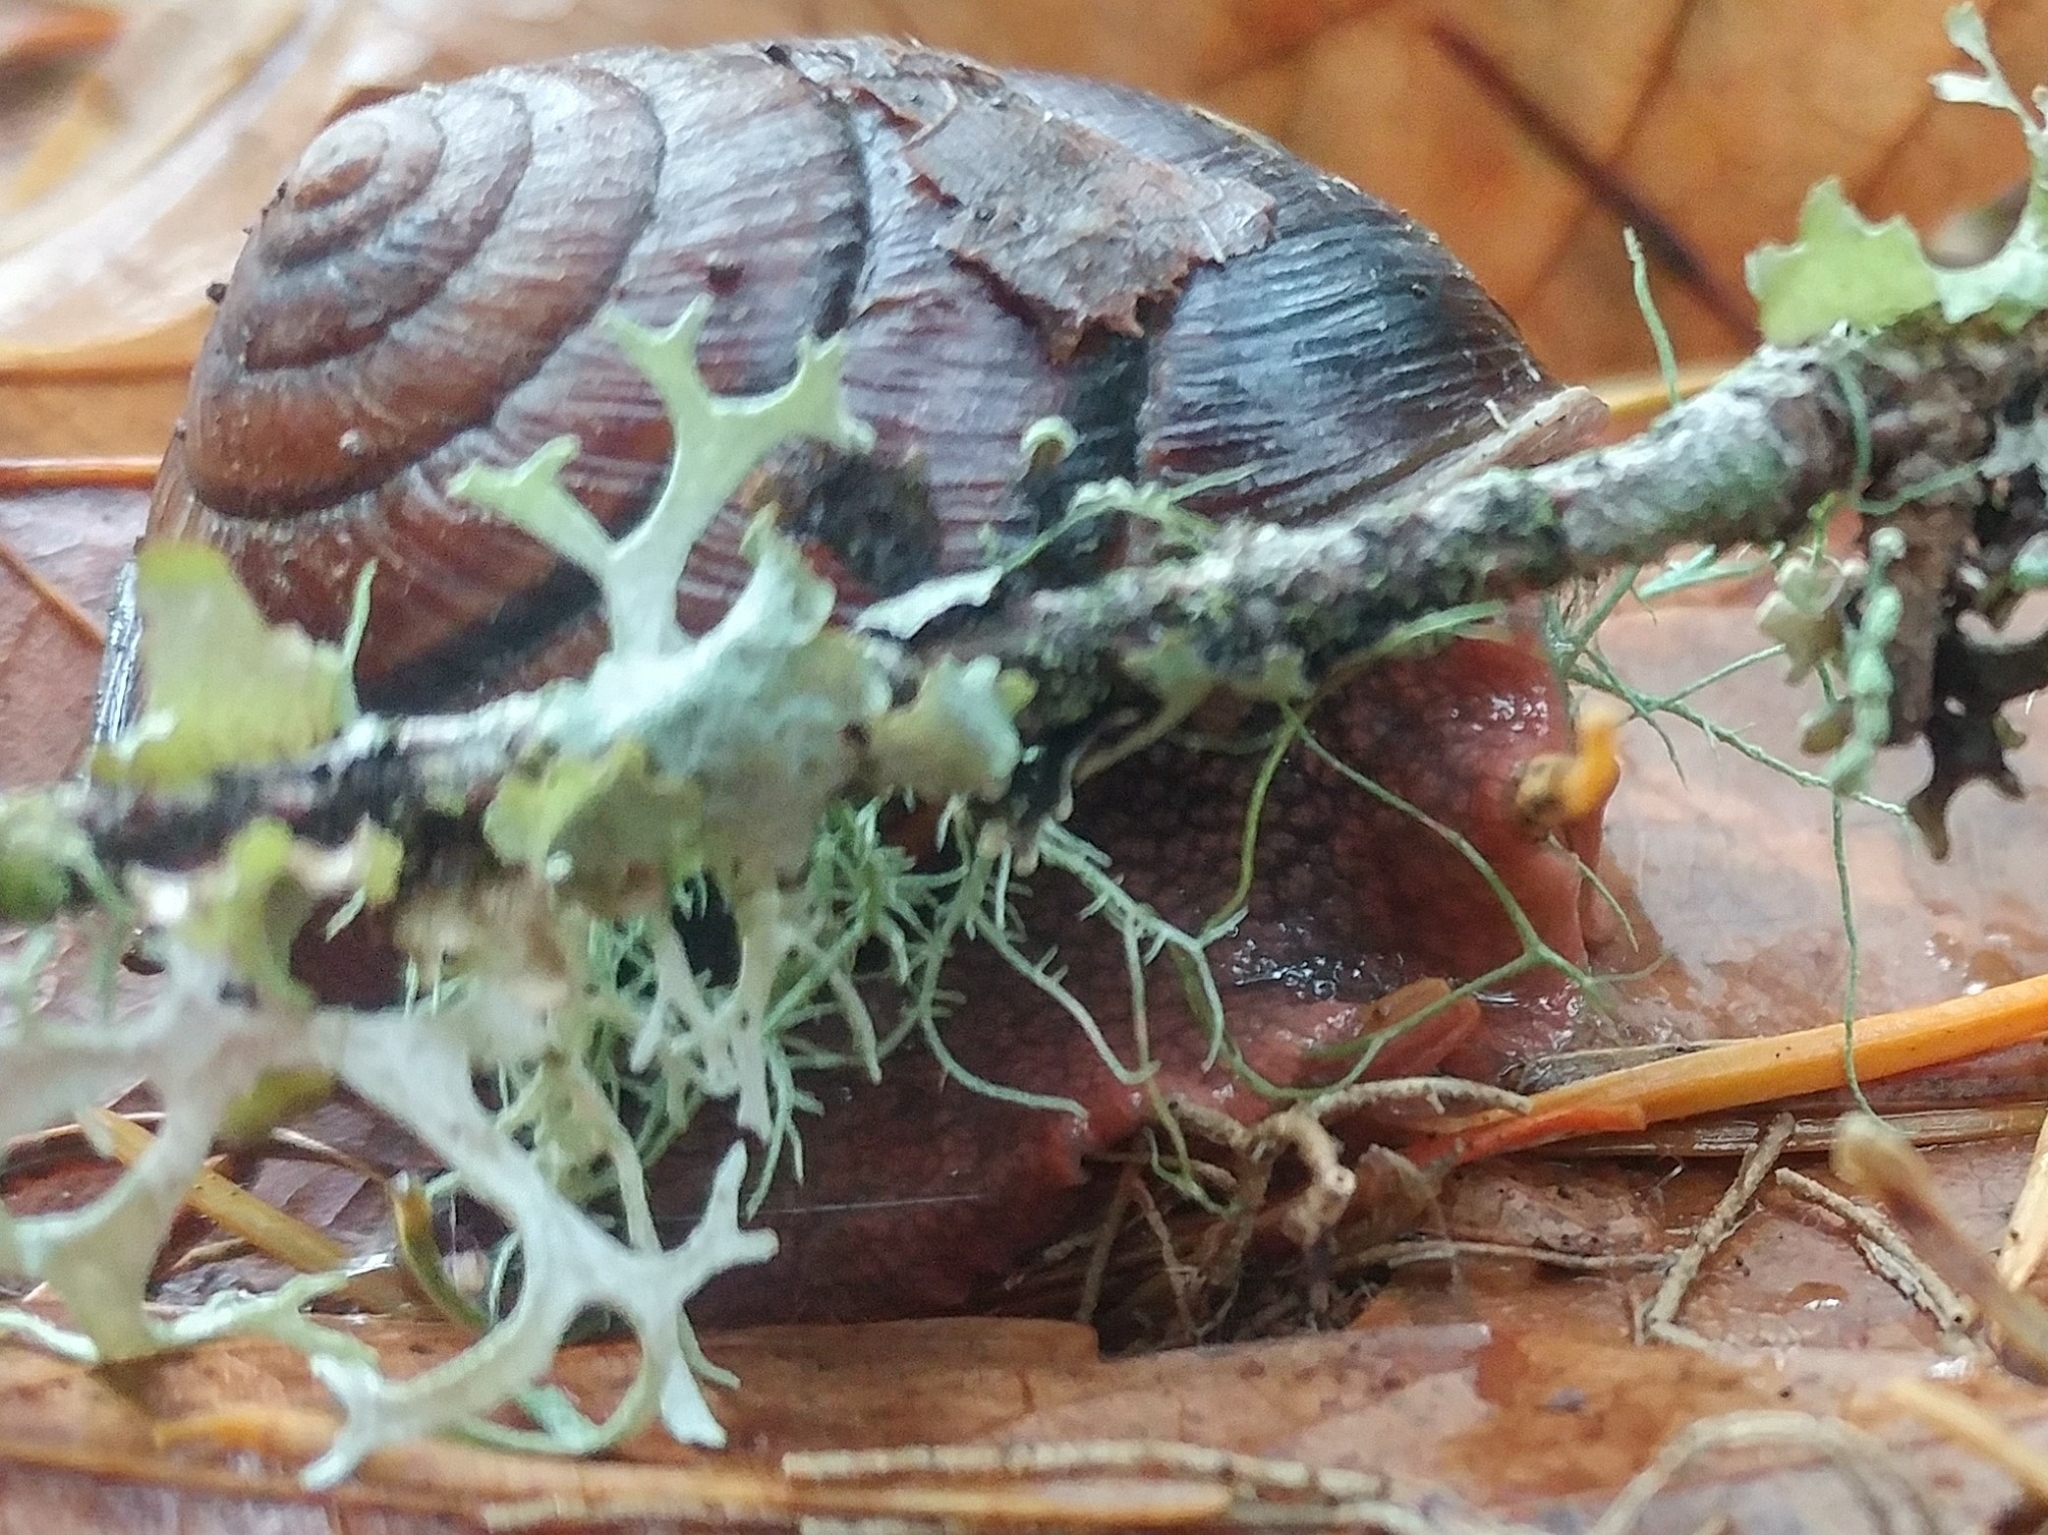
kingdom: Animalia
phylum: Mollusca
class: Gastropoda
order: Stylommatophora
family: Xanthonychidae
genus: Monadenia
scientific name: Monadenia fidelis
